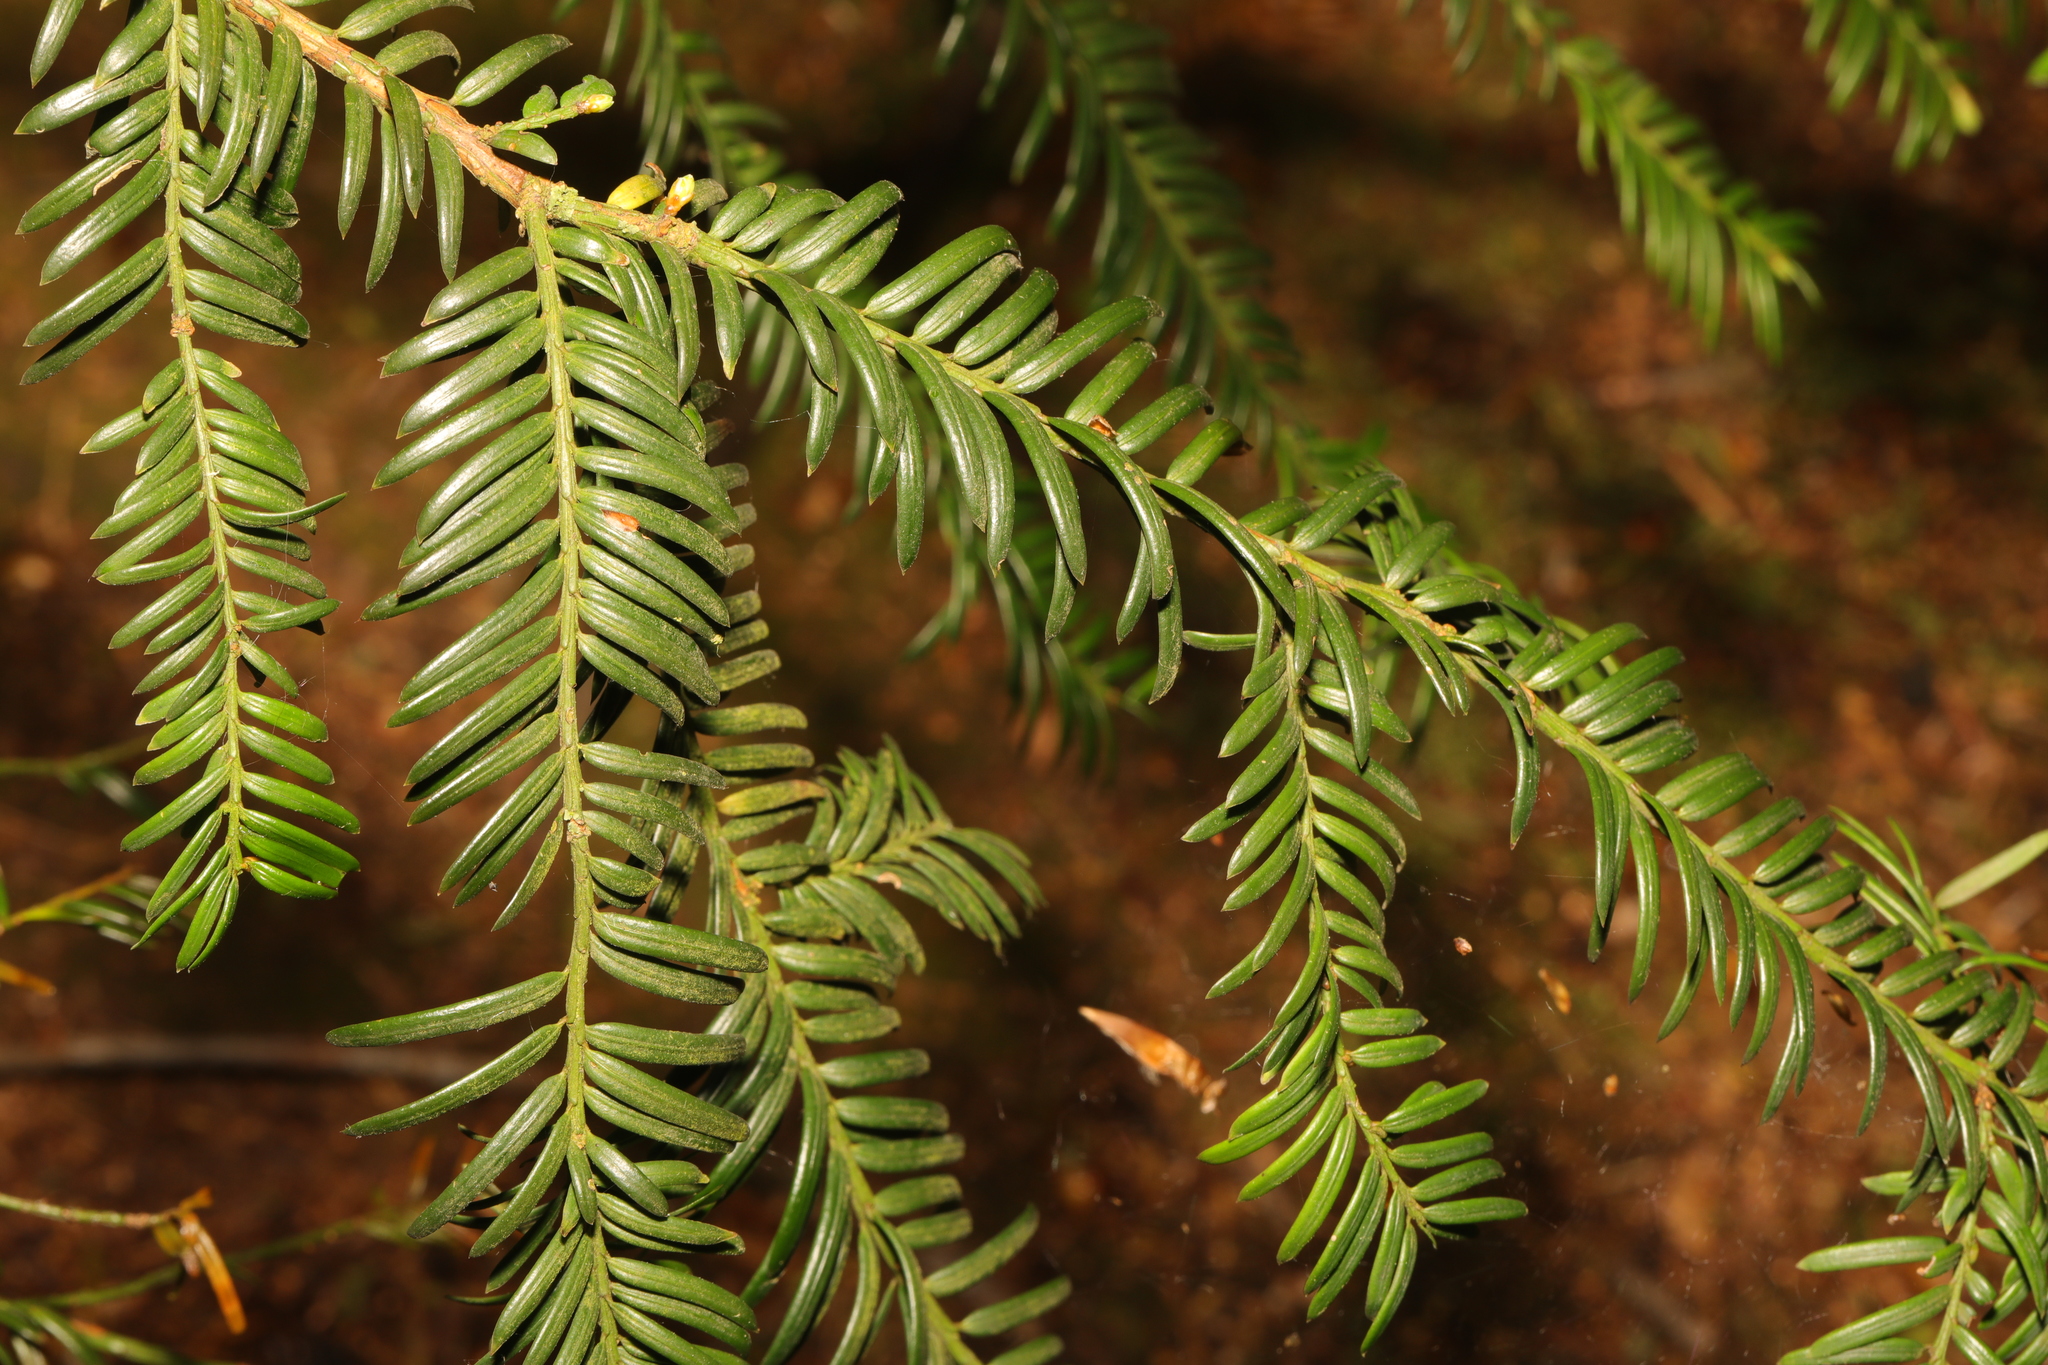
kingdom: Plantae
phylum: Tracheophyta
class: Pinopsida
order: Pinales
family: Taxaceae
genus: Taxus
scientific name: Taxus baccata
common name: Yew
